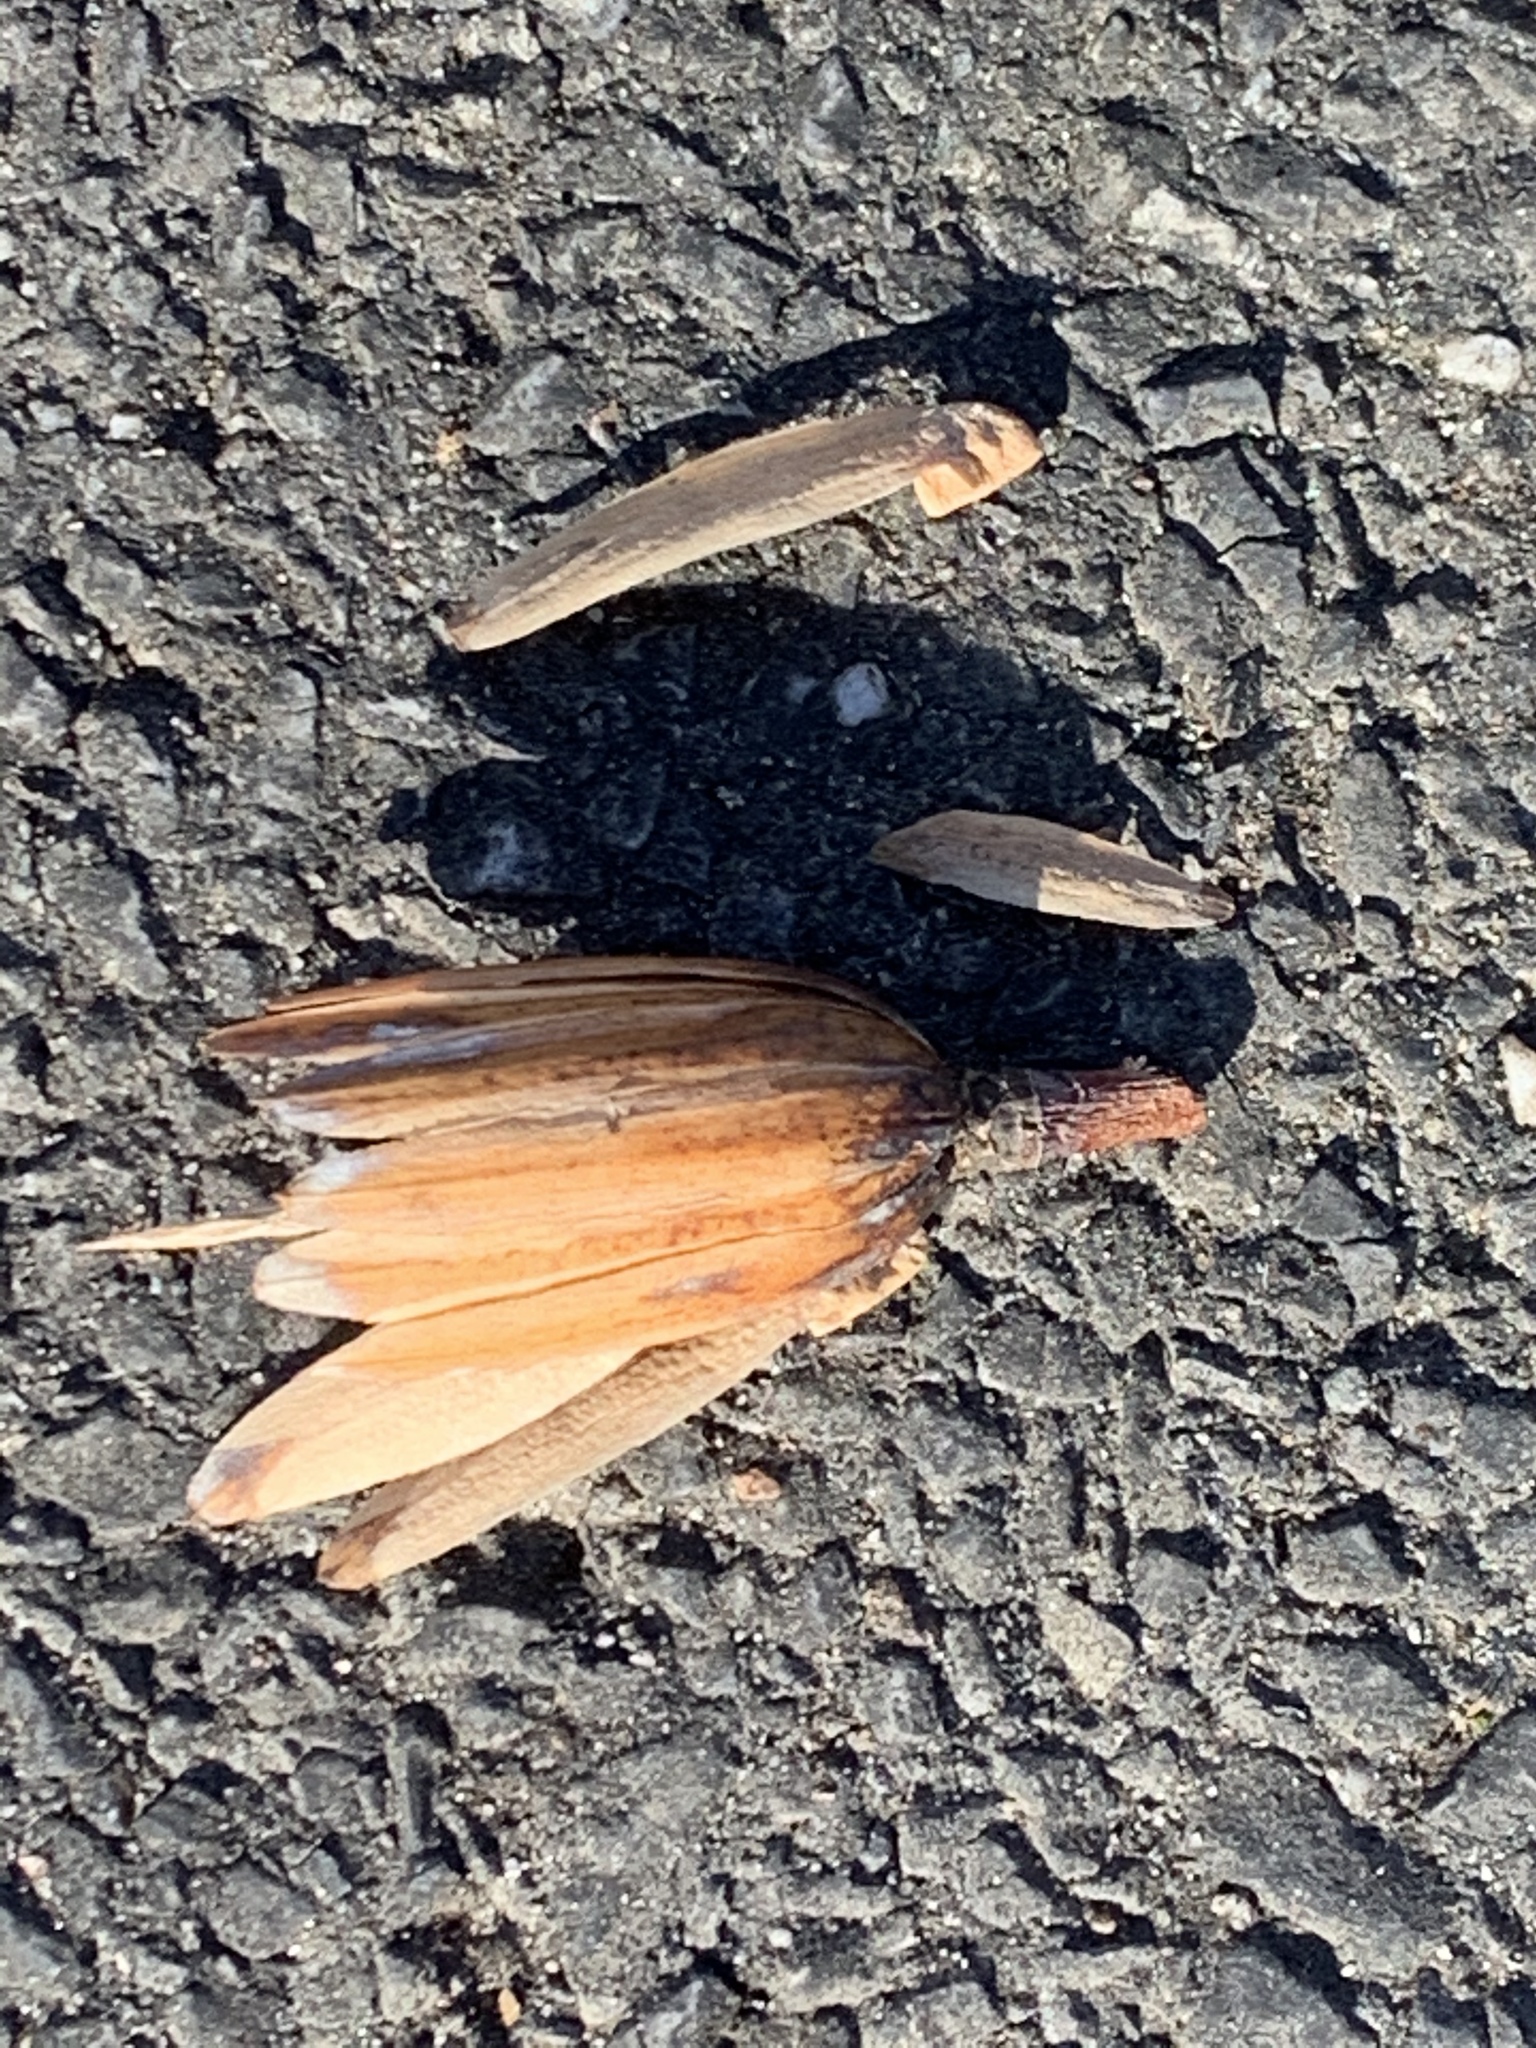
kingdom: Plantae
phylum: Tracheophyta
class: Magnoliopsida
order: Magnoliales
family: Magnoliaceae
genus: Liriodendron
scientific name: Liriodendron tulipifera
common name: Tulip tree
